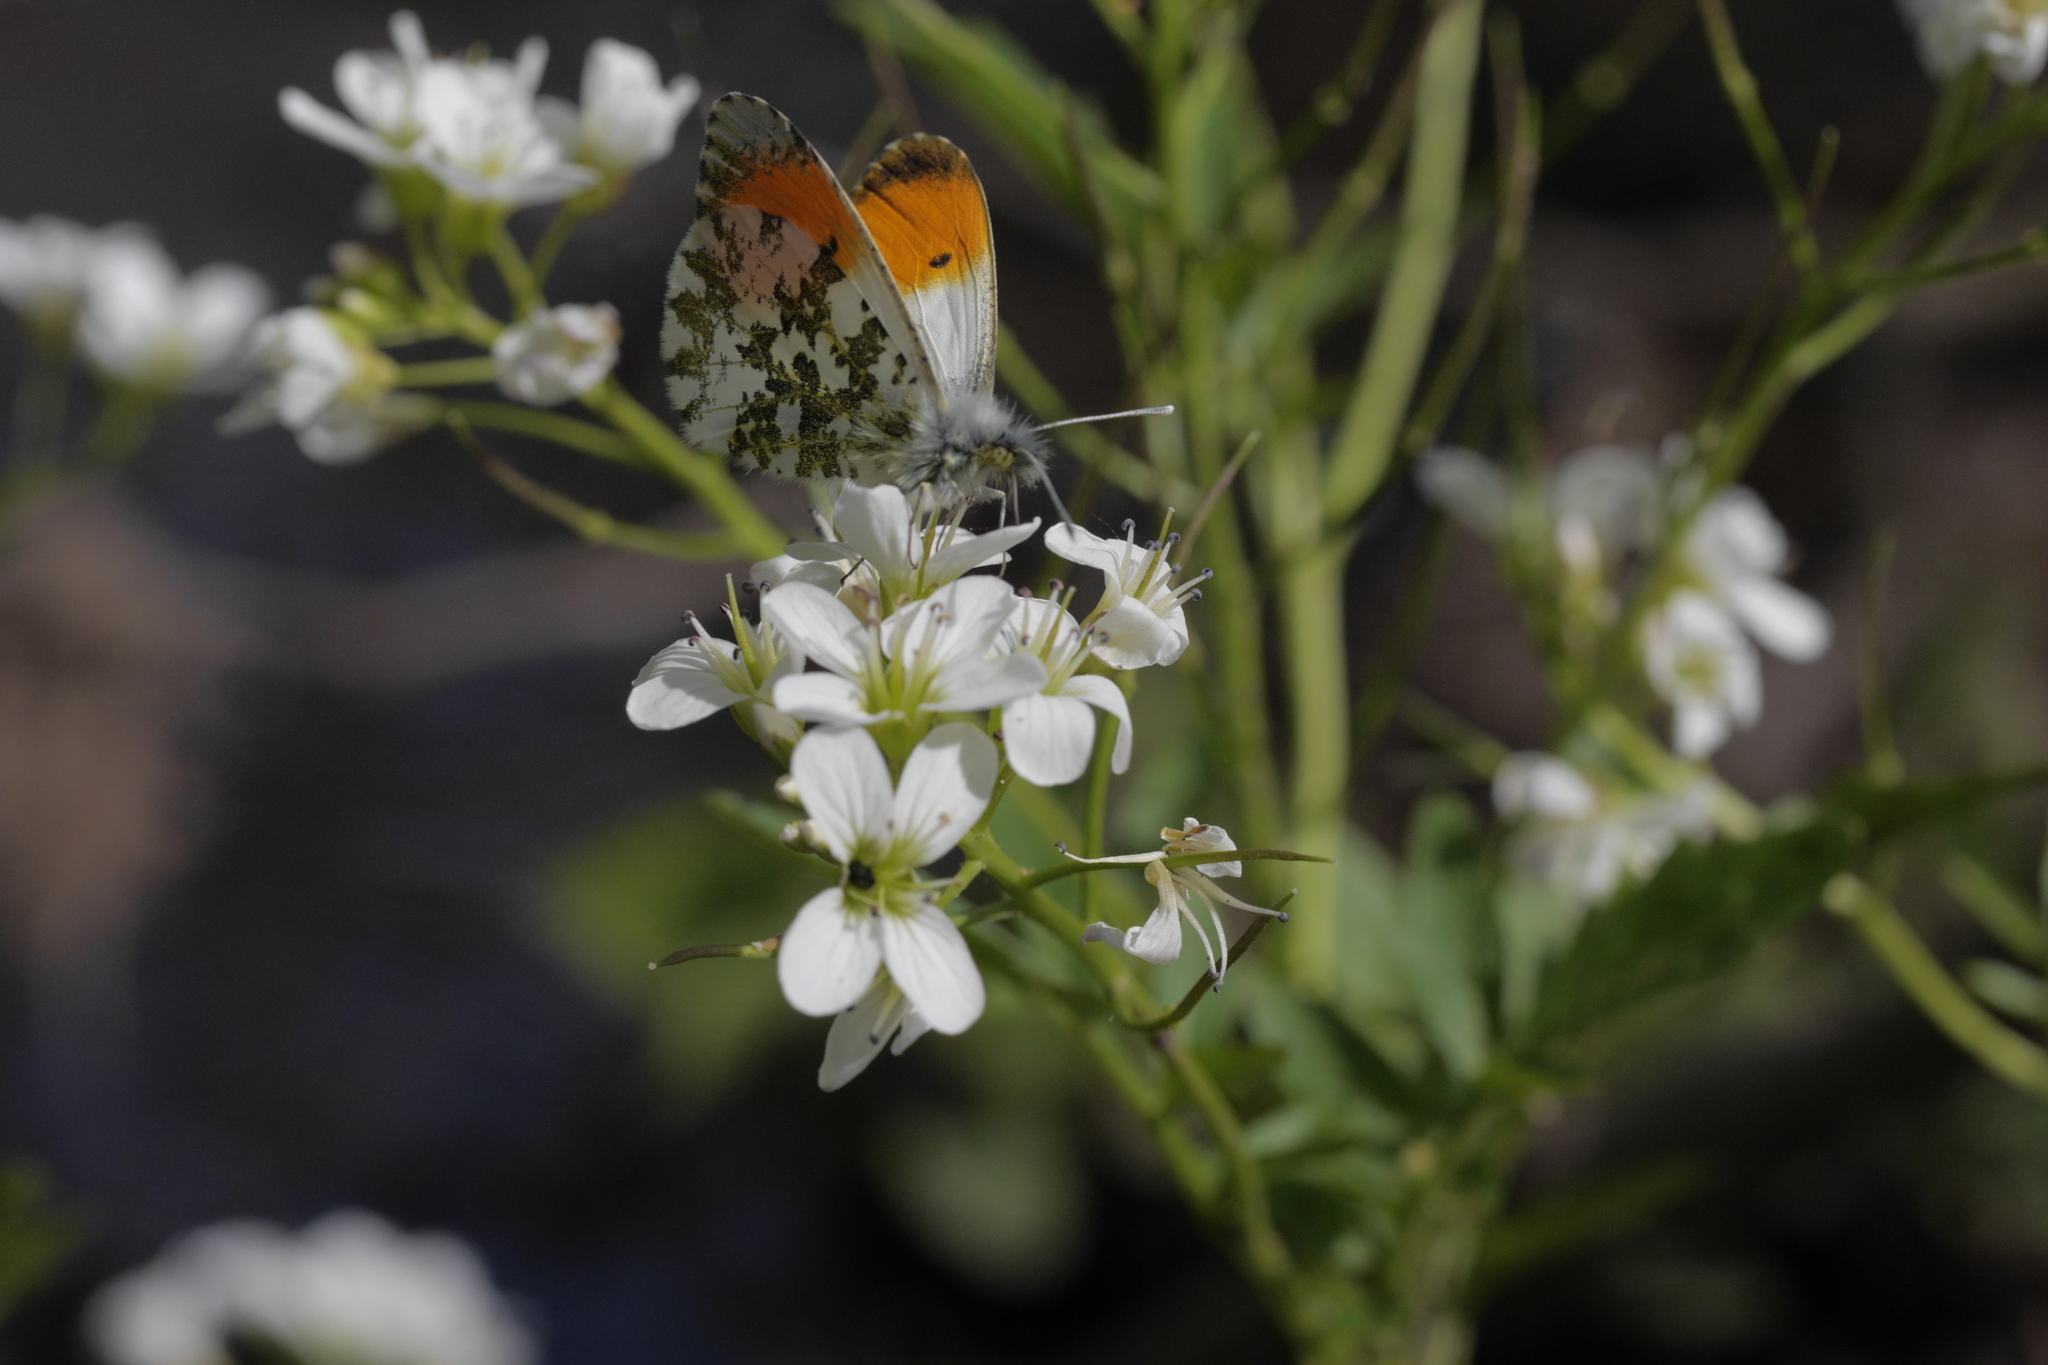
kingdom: Animalia
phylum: Arthropoda
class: Insecta
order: Lepidoptera
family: Pieridae
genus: Anthocharis
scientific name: Anthocharis cardamines
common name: Orange-tip
